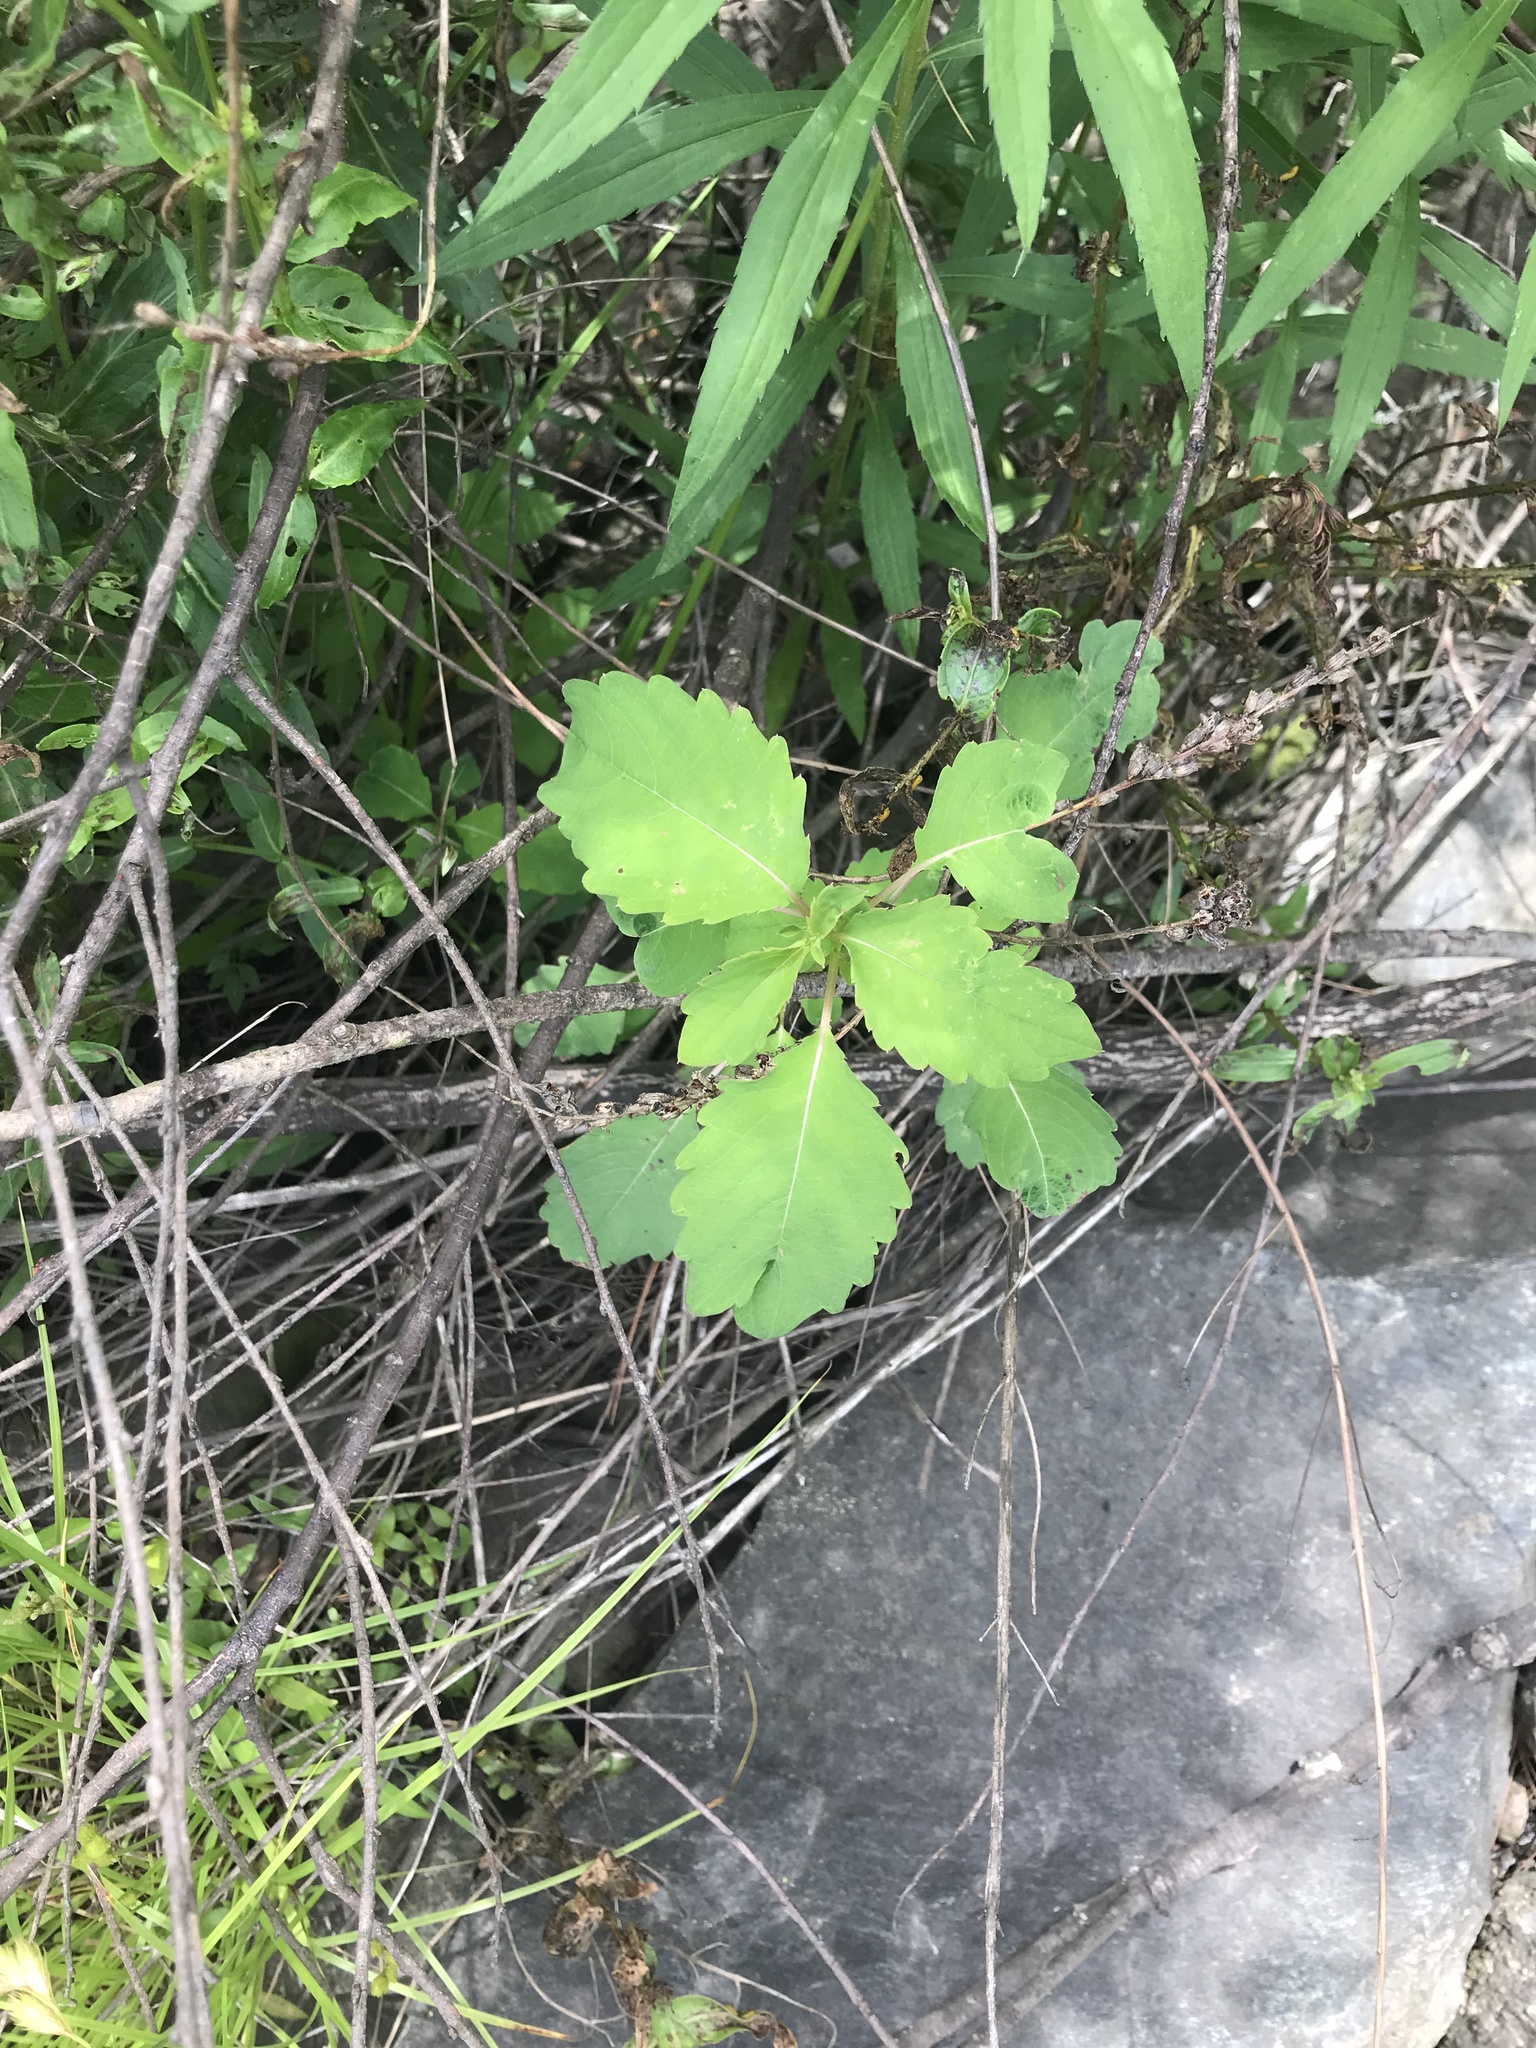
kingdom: Plantae
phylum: Tracheophyta
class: Magnoliopsida
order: Ericales
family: Balsaminaceae
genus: Impatiens
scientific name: Impatiens
